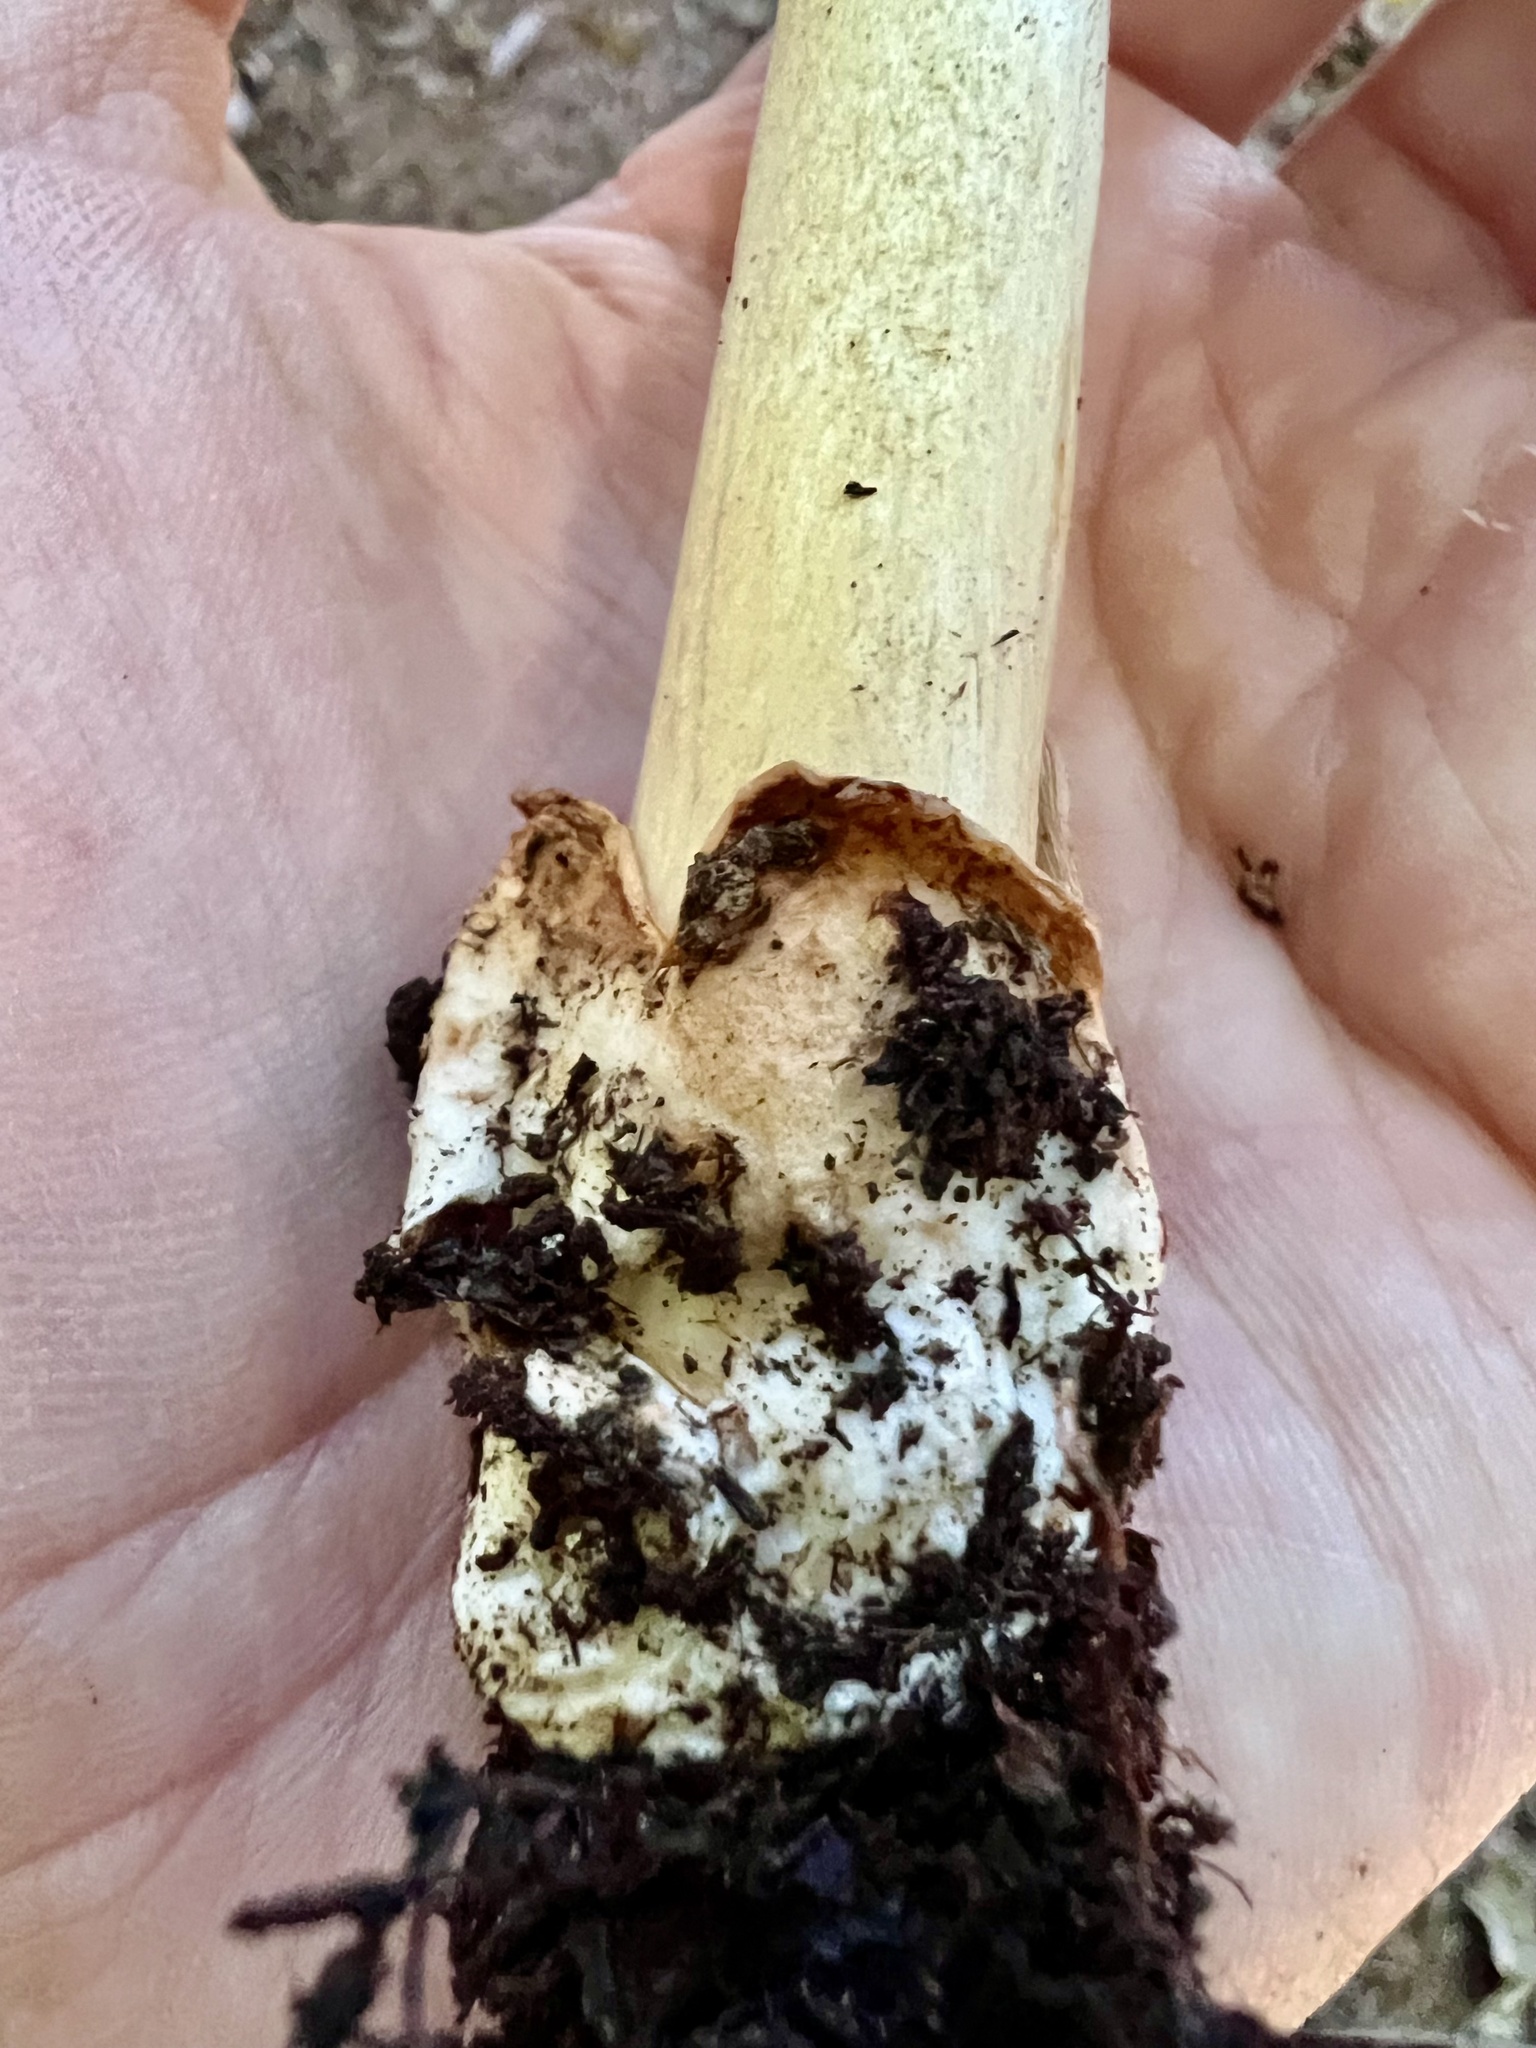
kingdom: Fungi
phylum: Basidiomycota
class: Agaricomycetes
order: Agaricales
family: Amanitaceae
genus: Amanita
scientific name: Amanita fulva
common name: Tawny grisette
